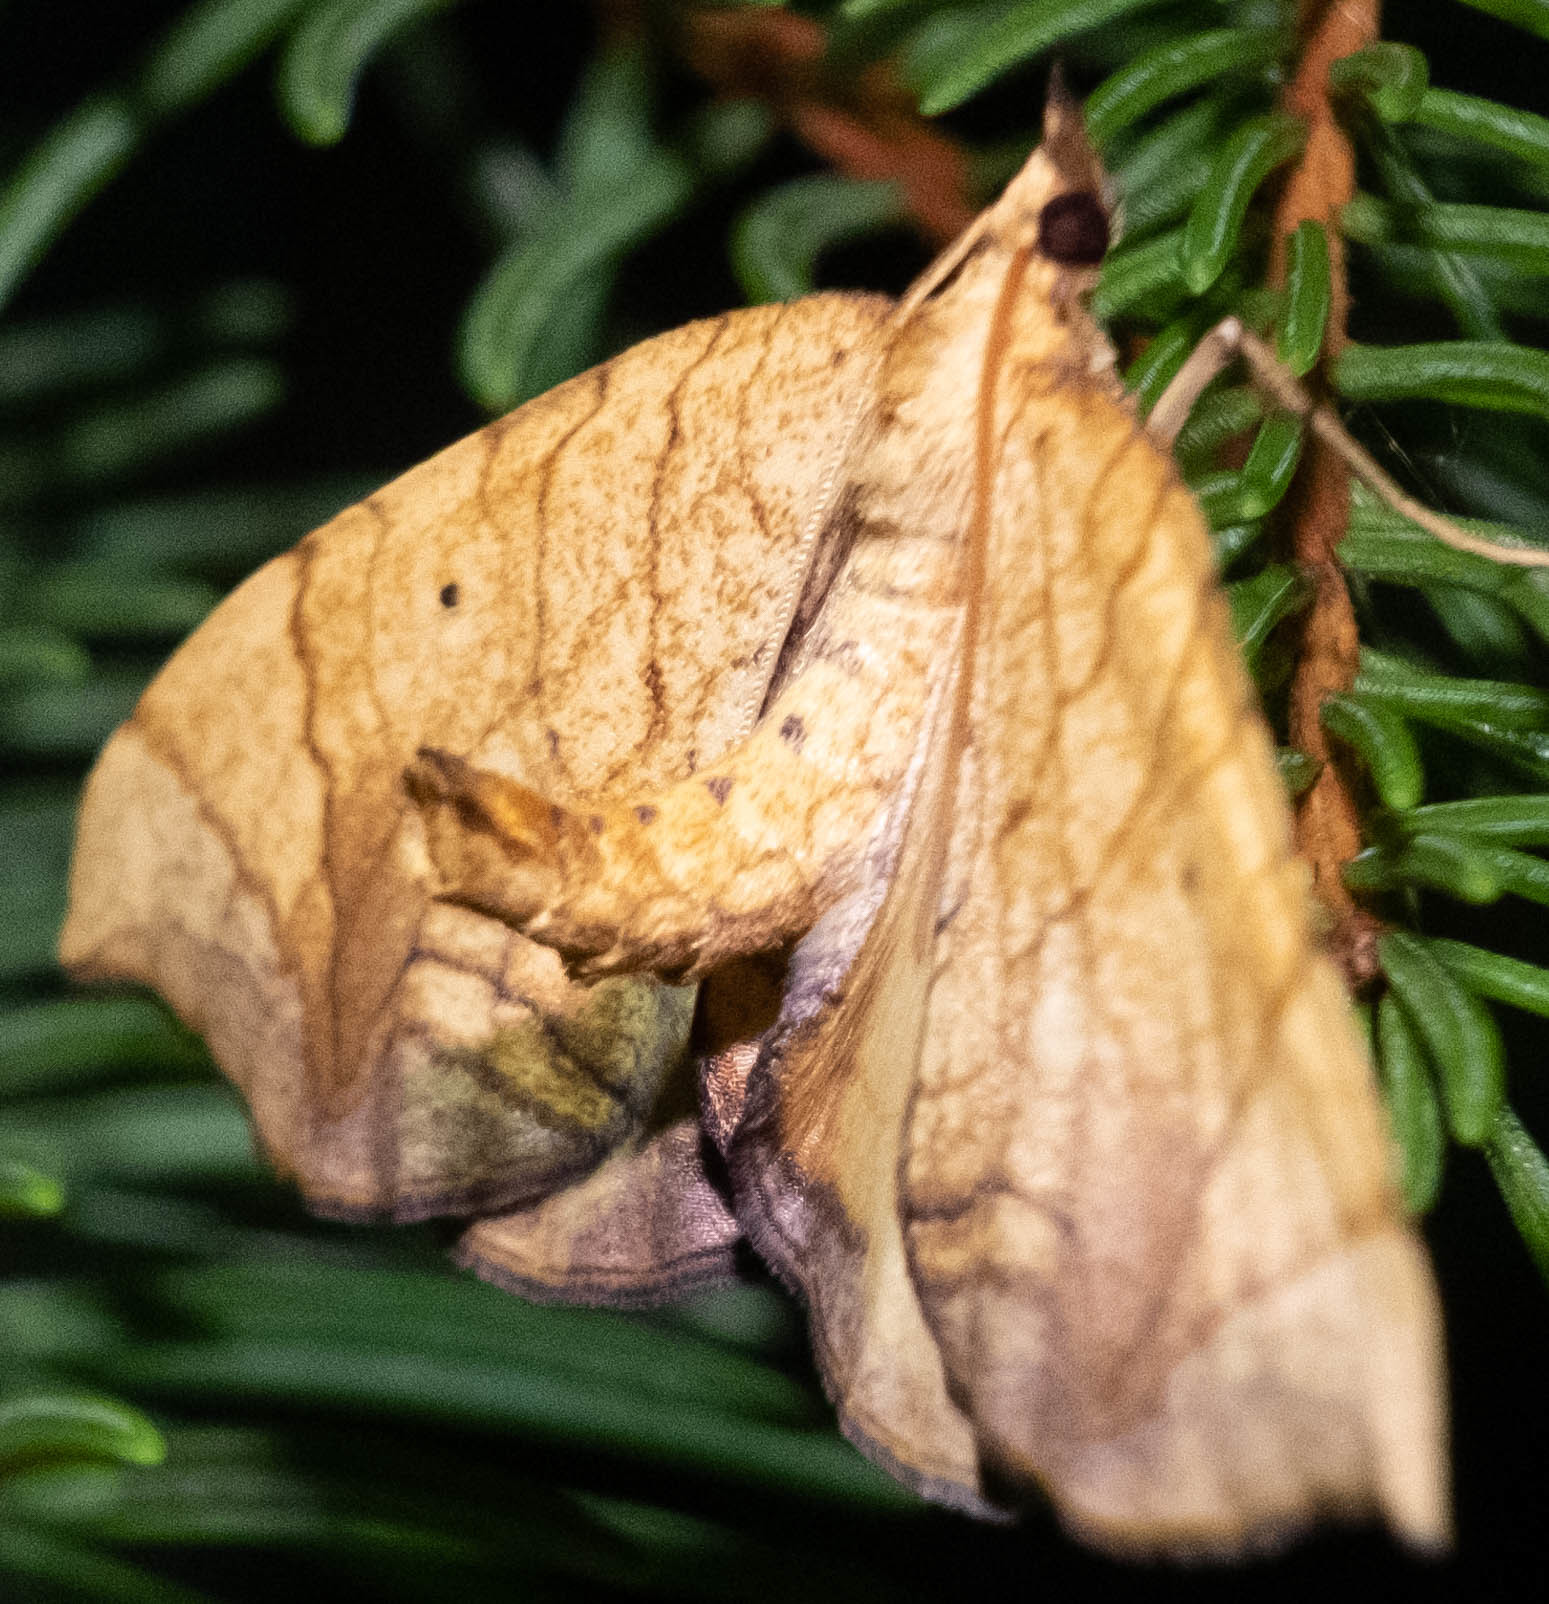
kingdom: Animalia
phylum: Arthropoda
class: Insecta
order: Lepidoptera
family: Geometridae
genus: Eulithis
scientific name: Eulithis gracilineata
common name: Greater grapevine looper moth
